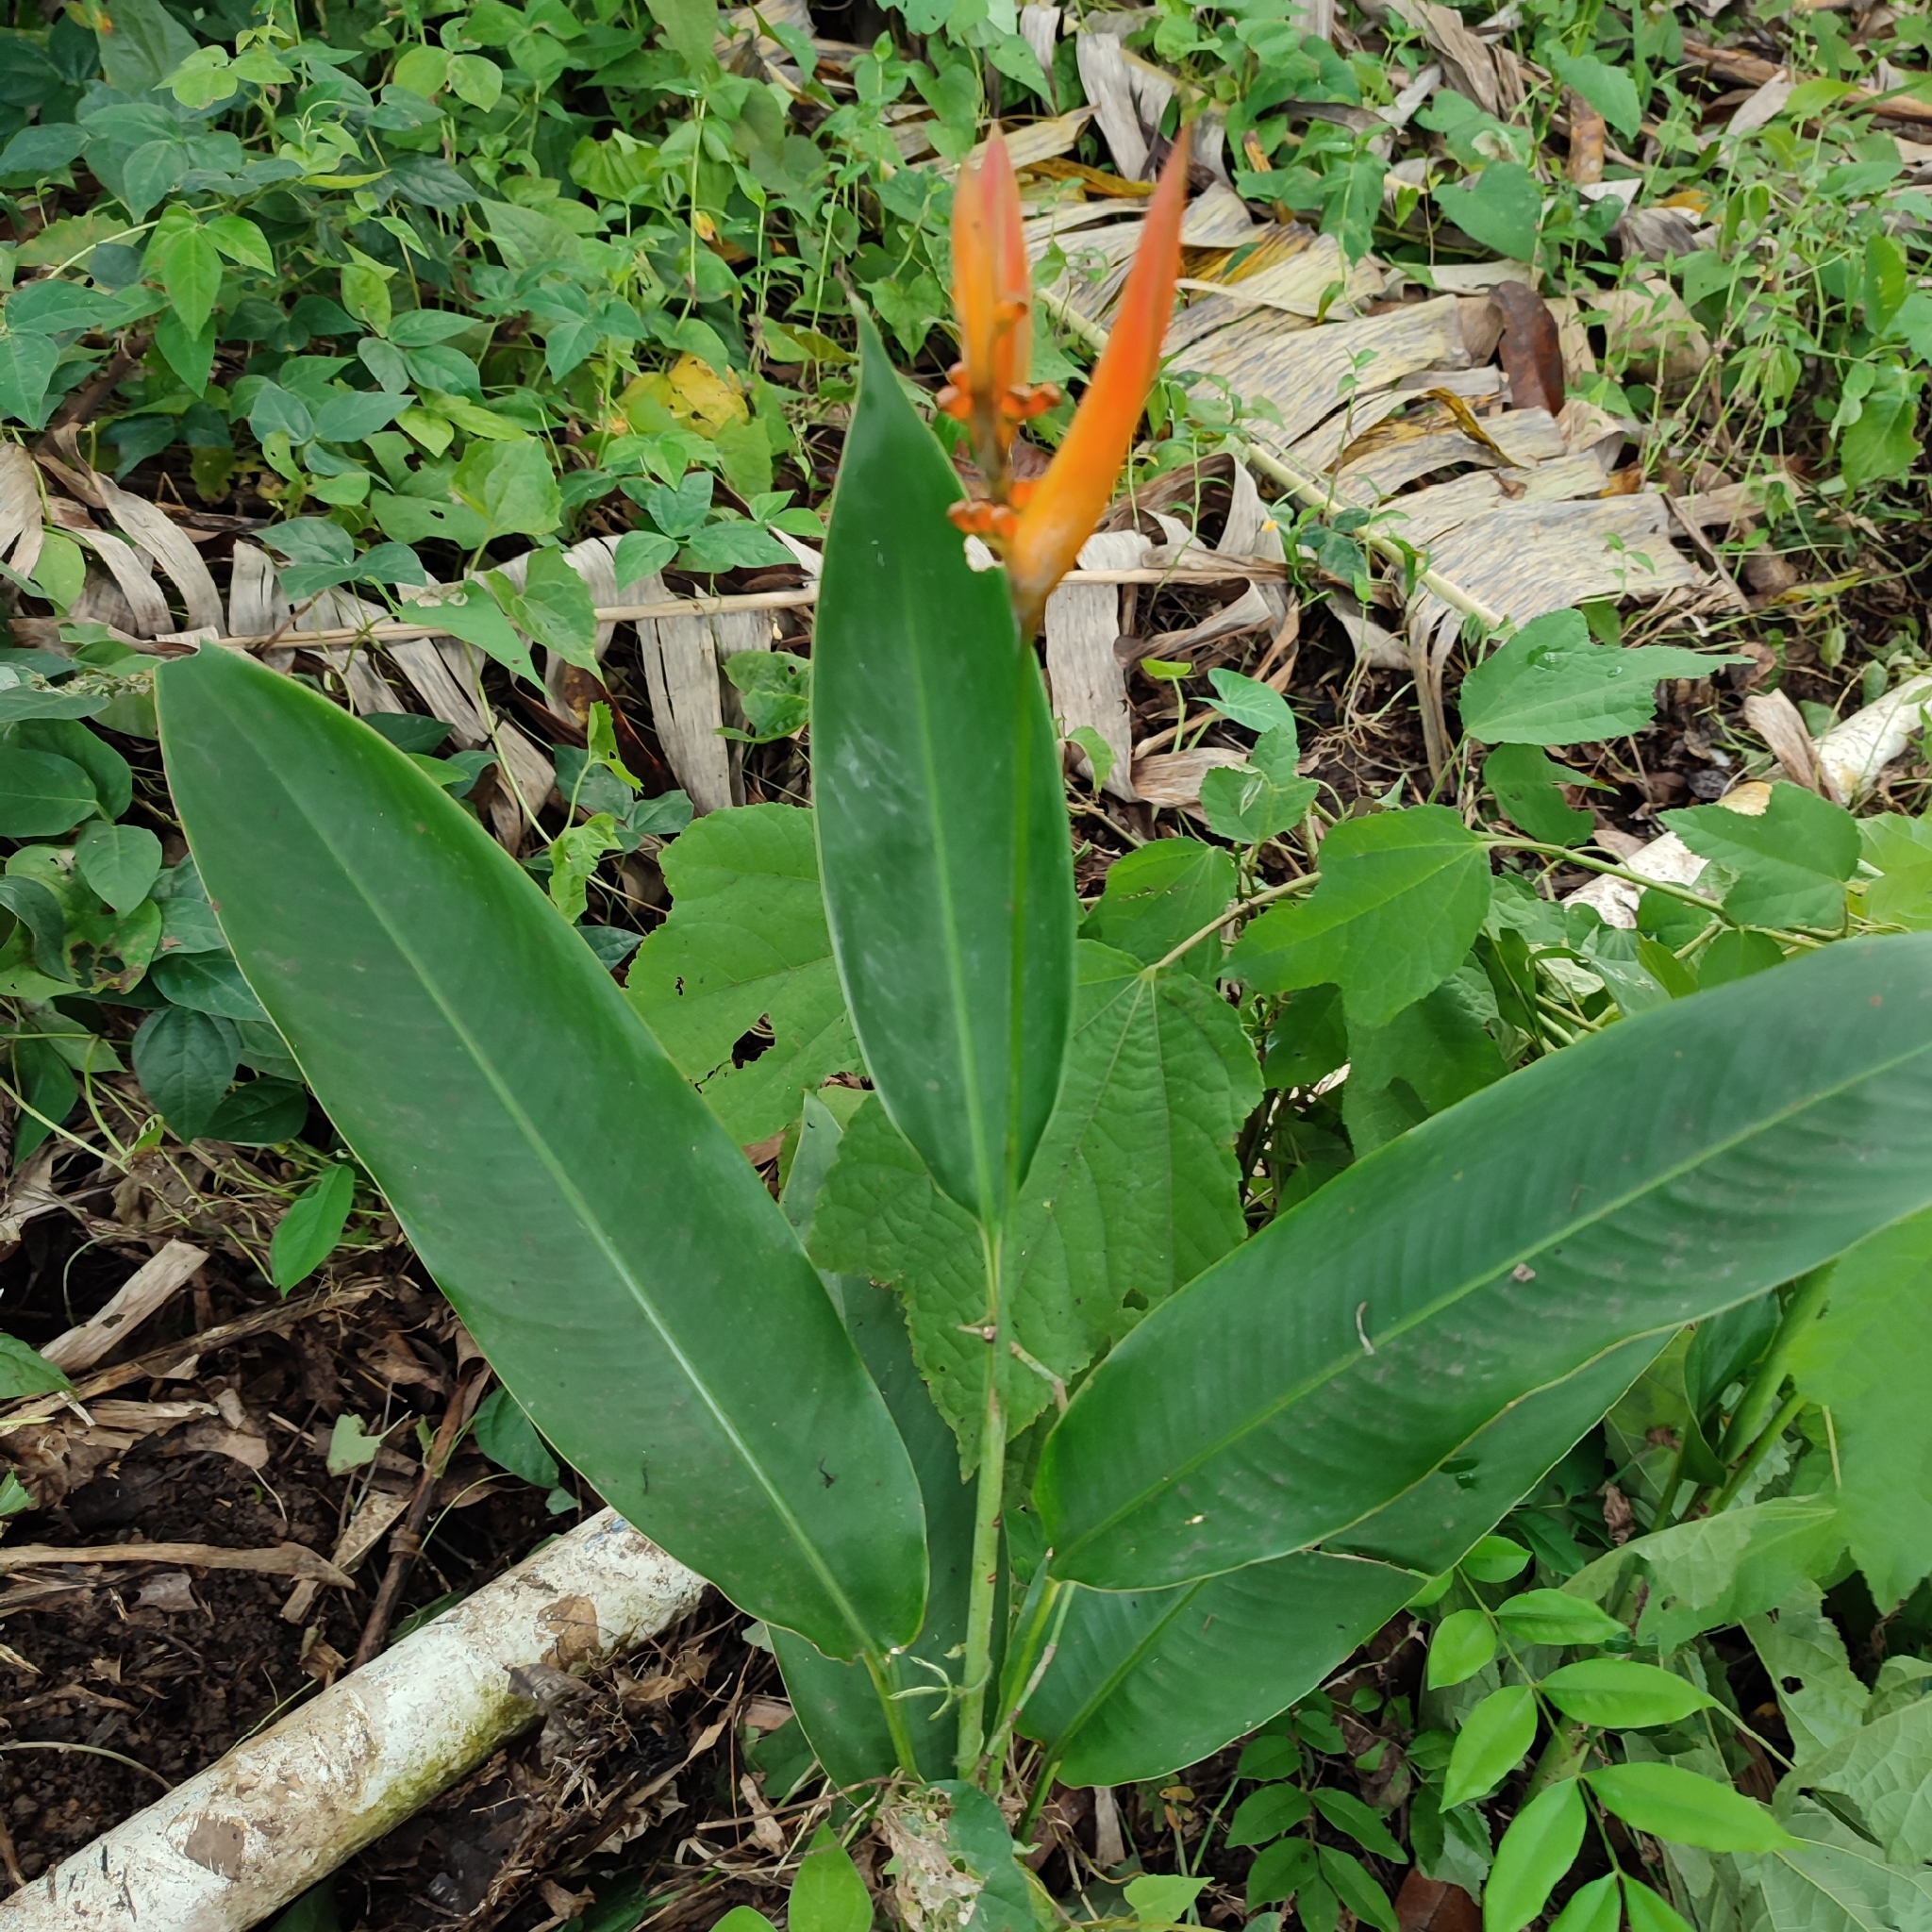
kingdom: Plantae
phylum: Tracheophyta
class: Liliopsida
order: Zingiberales
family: Heliconiaceae
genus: Heliconia
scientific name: Heliconia psittacorum
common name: Parrot's-flower
